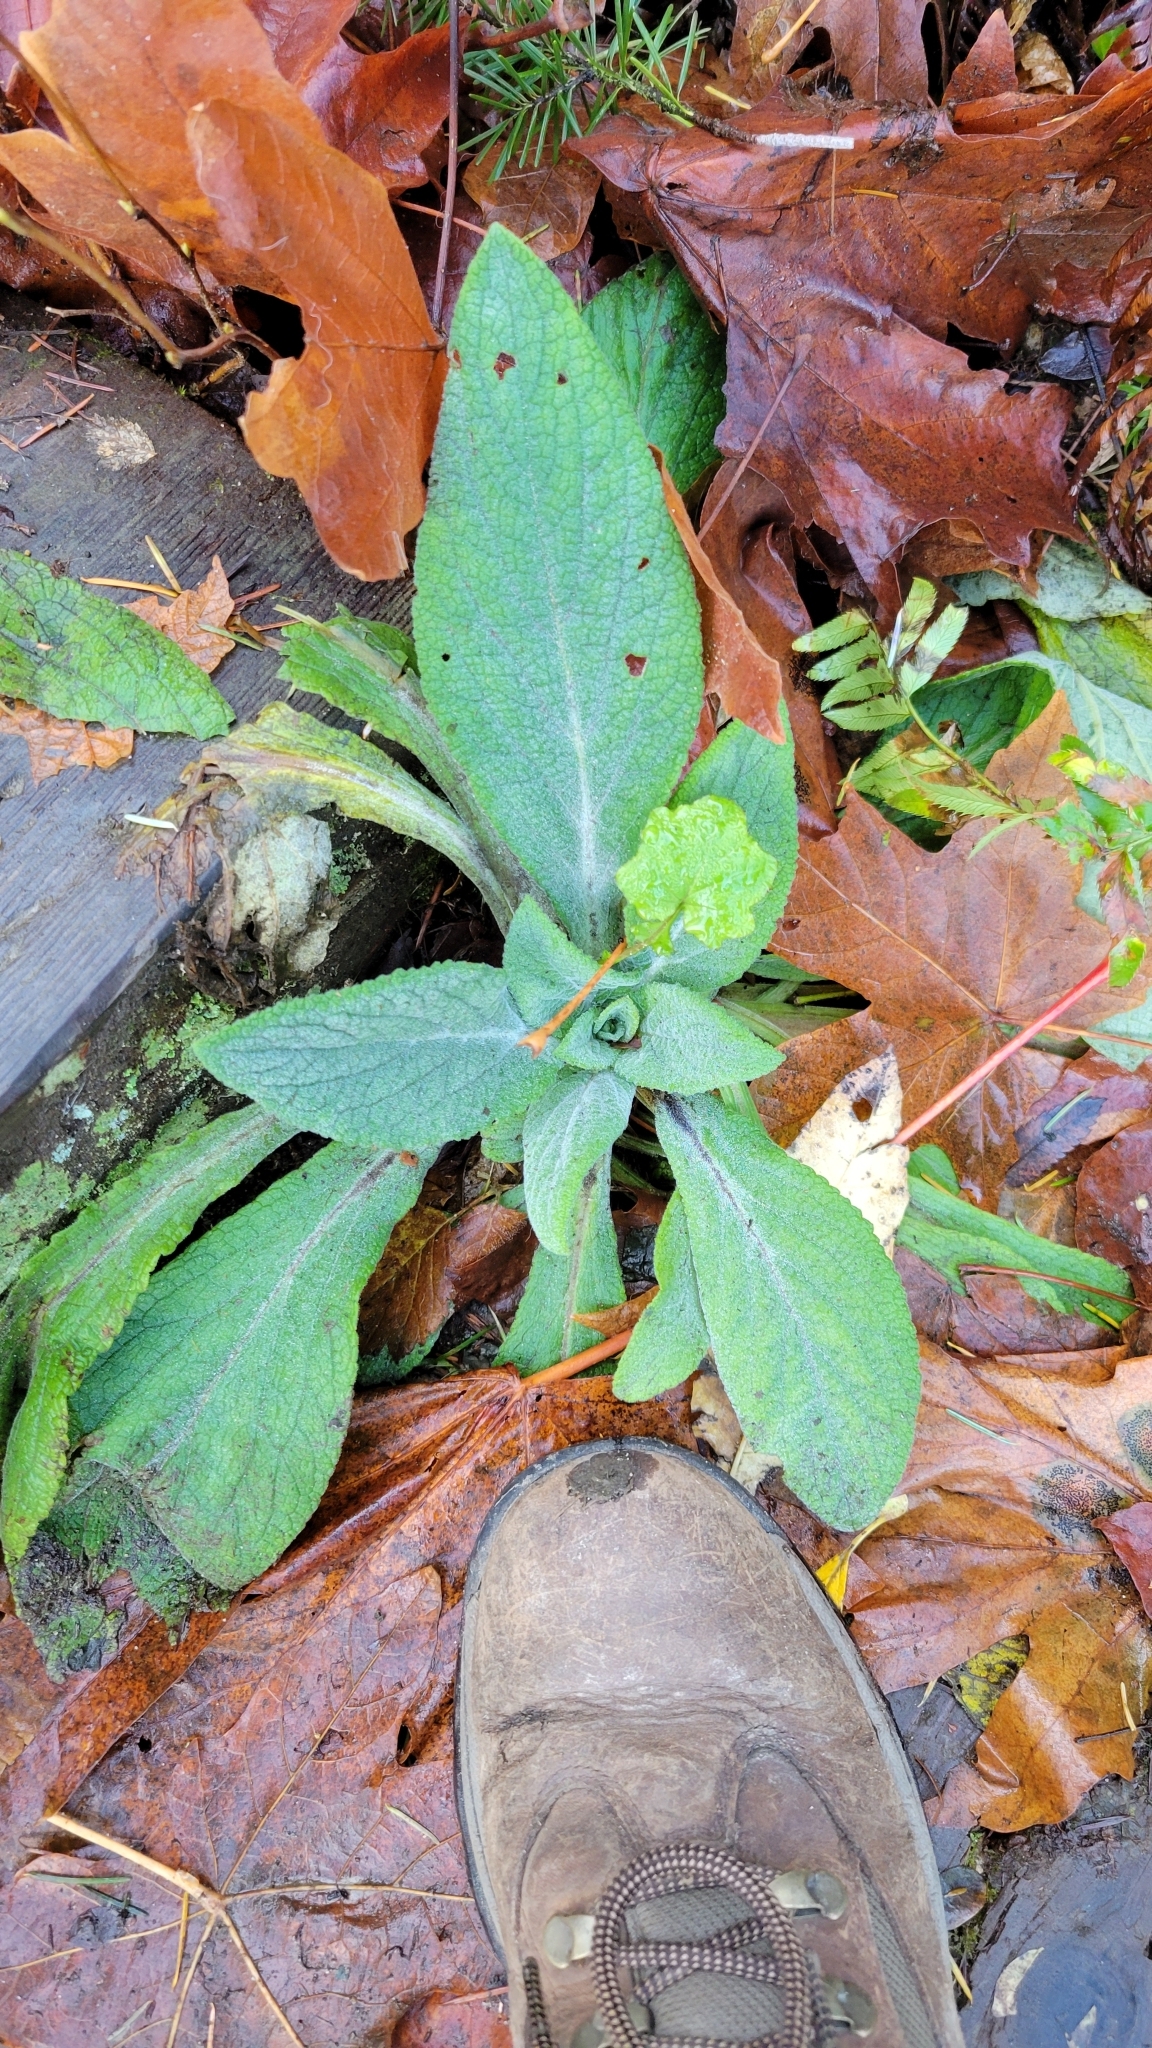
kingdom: Plantae
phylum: Tracheophyta
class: Magnoliopsida
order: Lamiales
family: Plantaginaceae
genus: Digitalis
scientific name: Digitalis purpurea
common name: Foxglove
